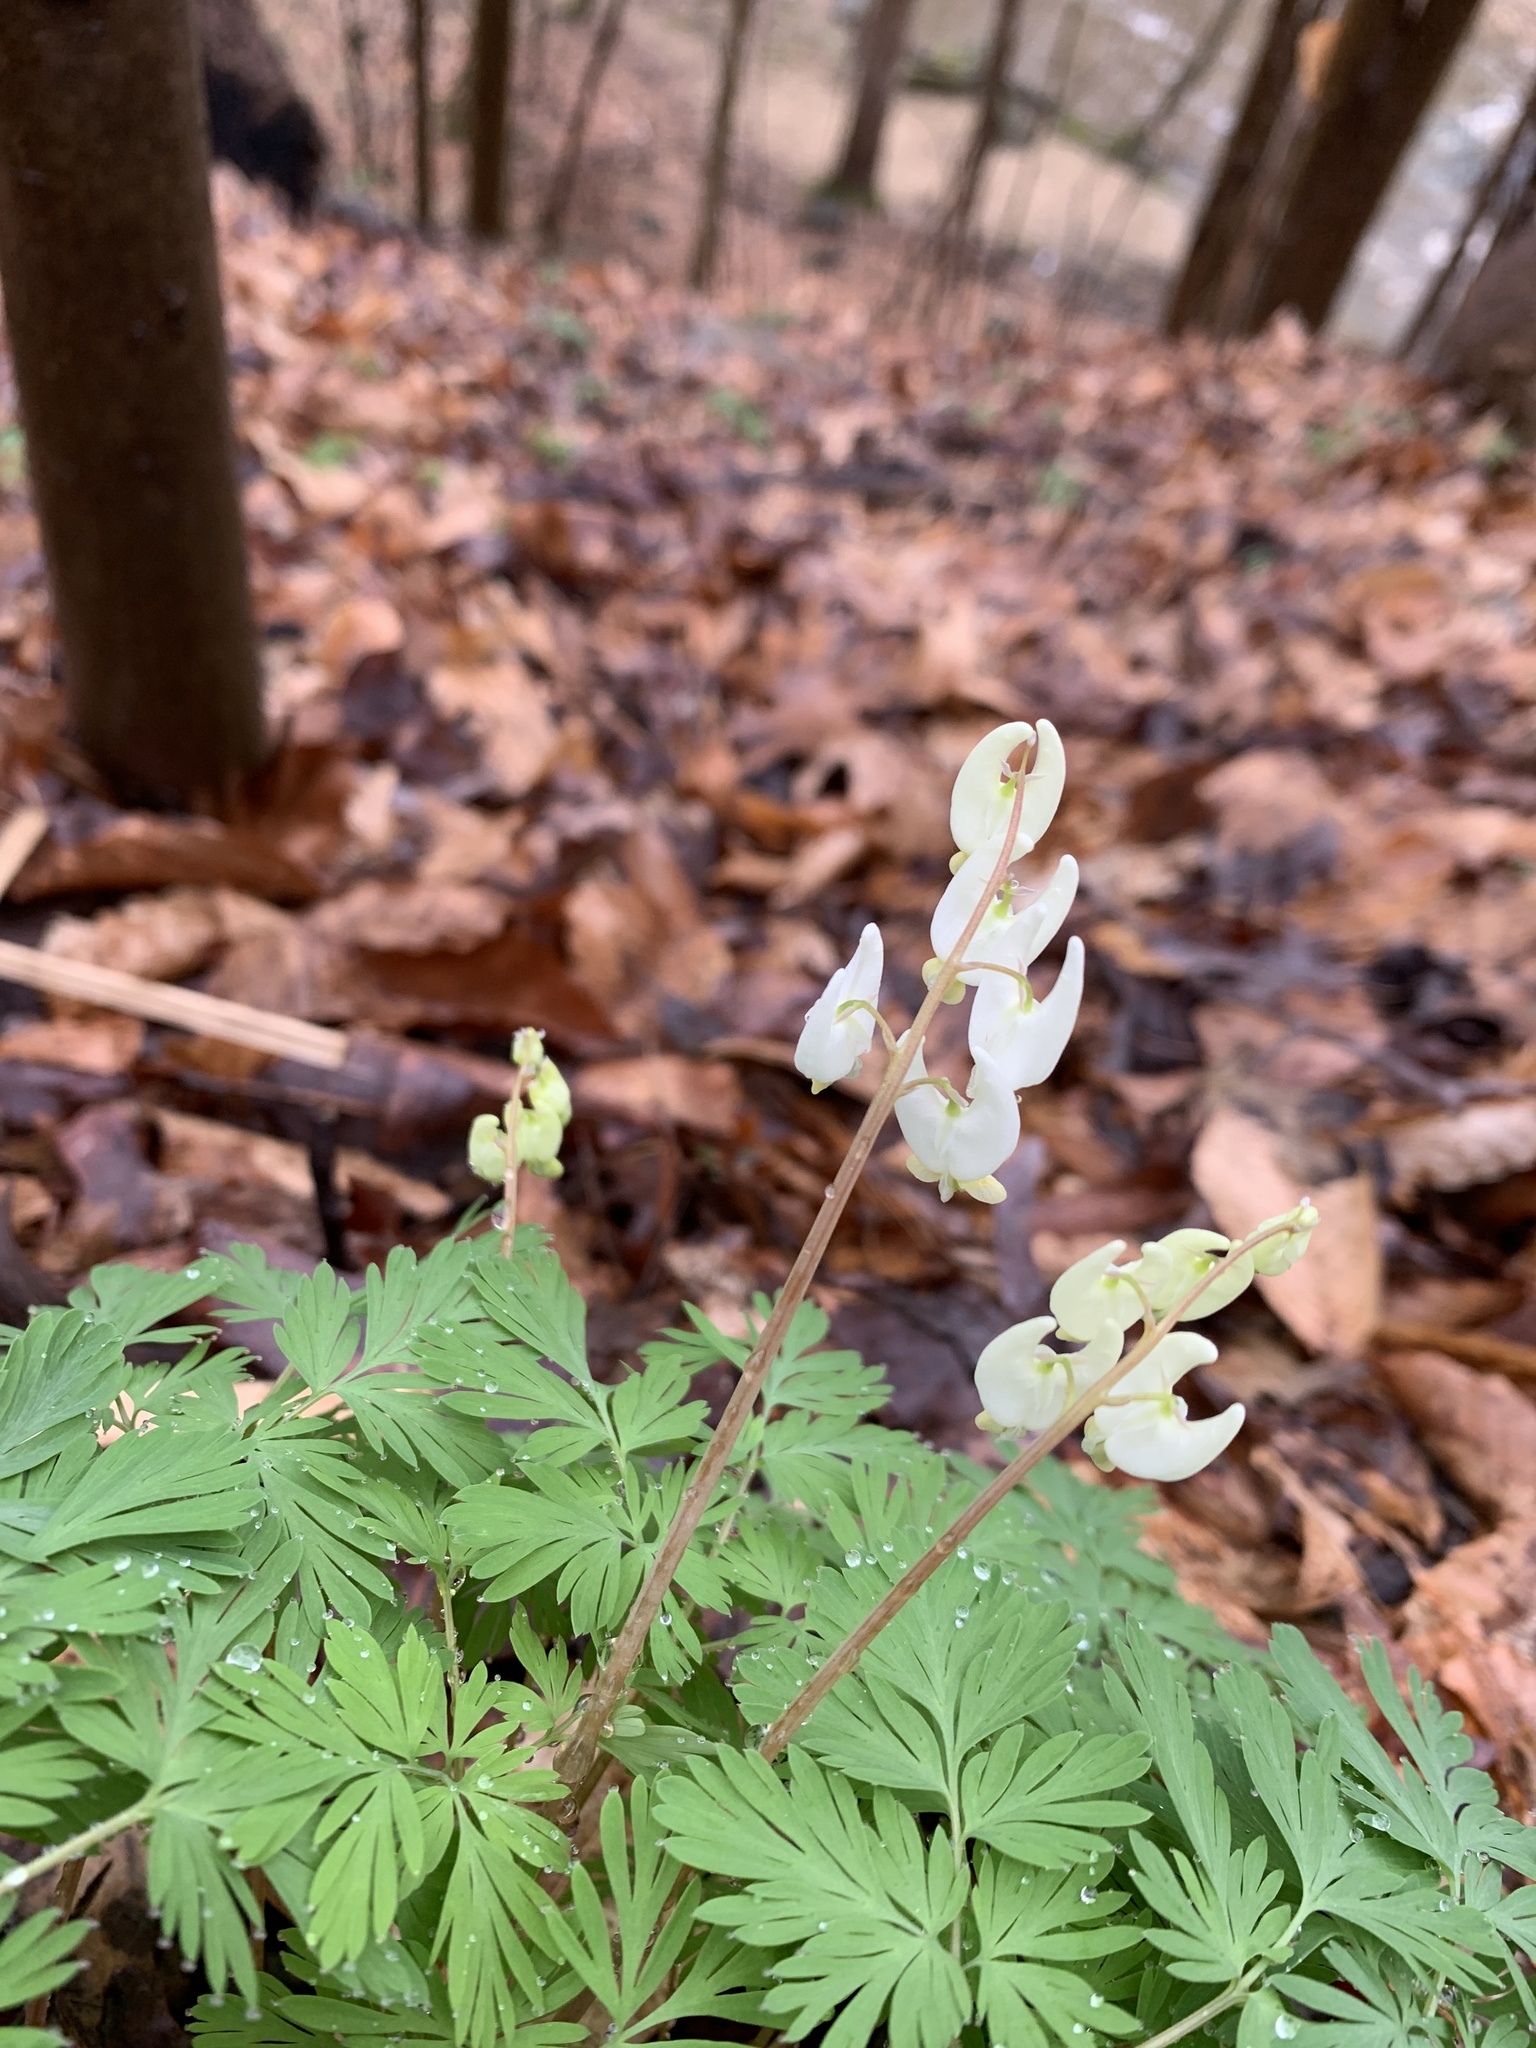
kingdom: Plantae
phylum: Tracheophyta
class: Magnoliopsida
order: Ranunculales
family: Papaveraceae
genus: Dicentra
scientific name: Dicentra cucullaria
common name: Dutchman's breeches
